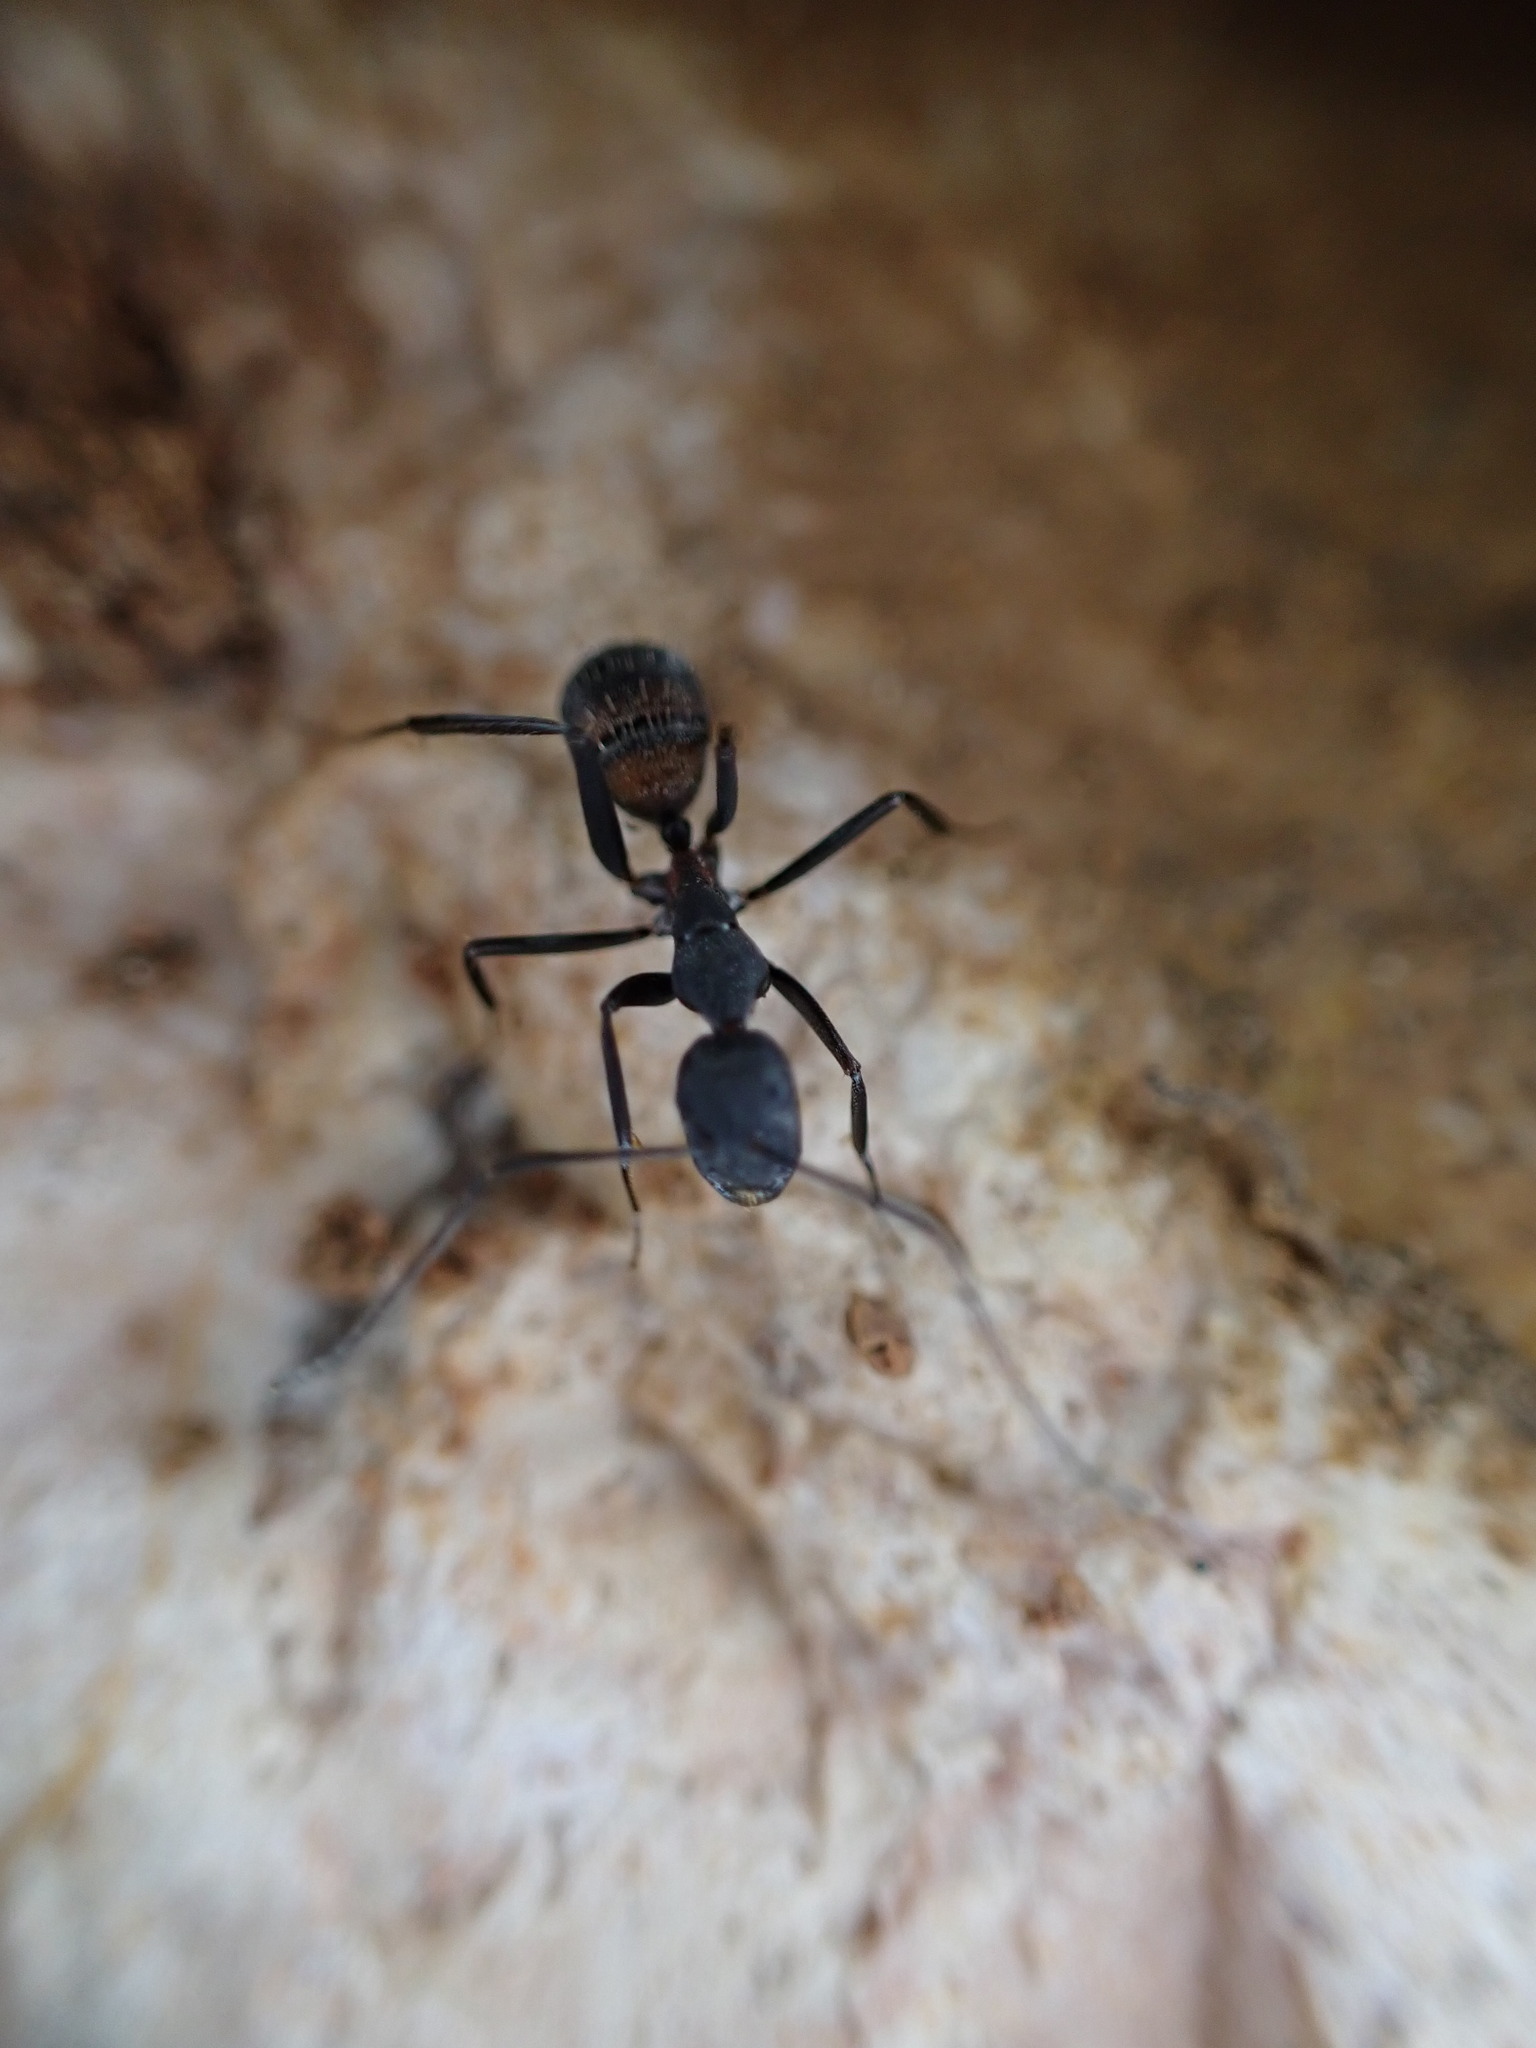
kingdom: Animalia
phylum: Arthropoda
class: Insecta
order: Hymenoptera
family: Formicidae
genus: Camponotus
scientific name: Camponotus cruentatus
